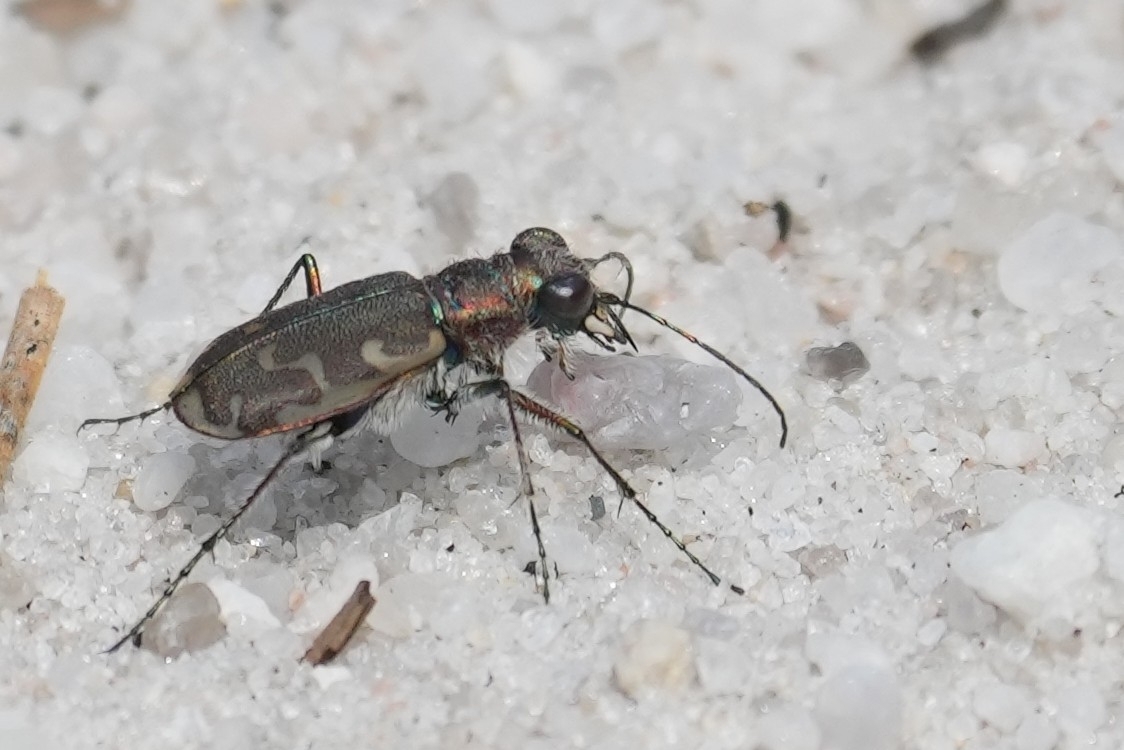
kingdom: Animalia
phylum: Arthropoda
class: Insecta
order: Coleoptera
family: Carabidae
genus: Cicindela
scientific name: Cicindela repanda
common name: Bronzed tiger beetle
